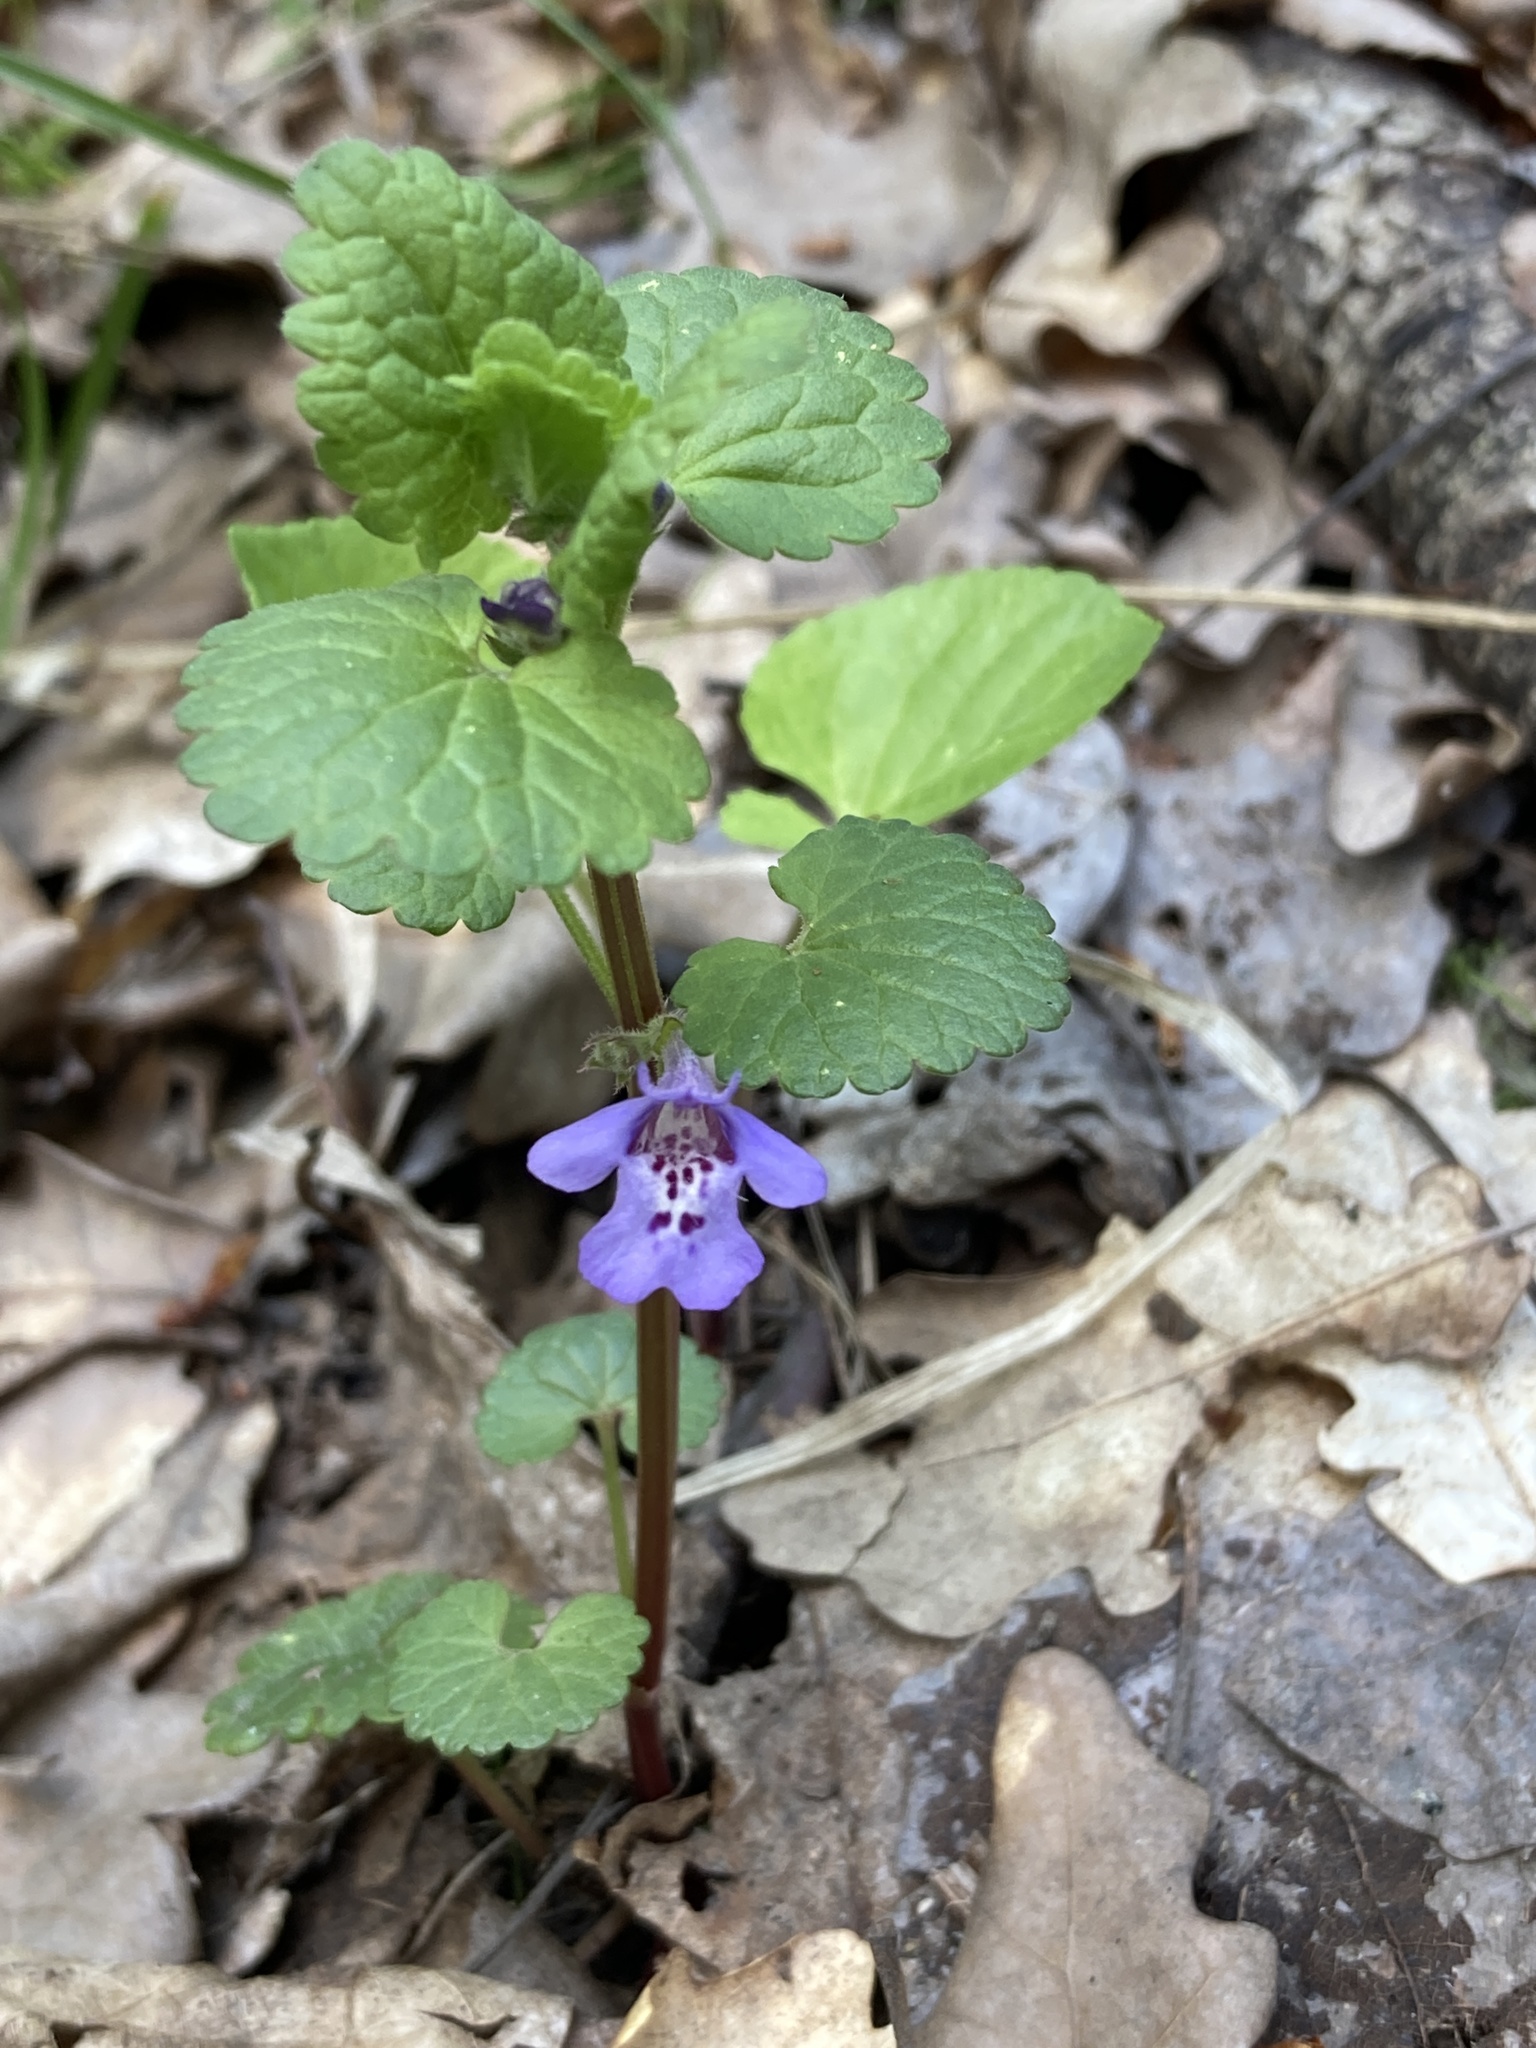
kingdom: Plantae
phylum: Tracheophyta
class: Magnoliopsida
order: Lamiales
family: Lamiaceae
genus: Glechoma
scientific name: Glechoma hederacea
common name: Ground ivy
